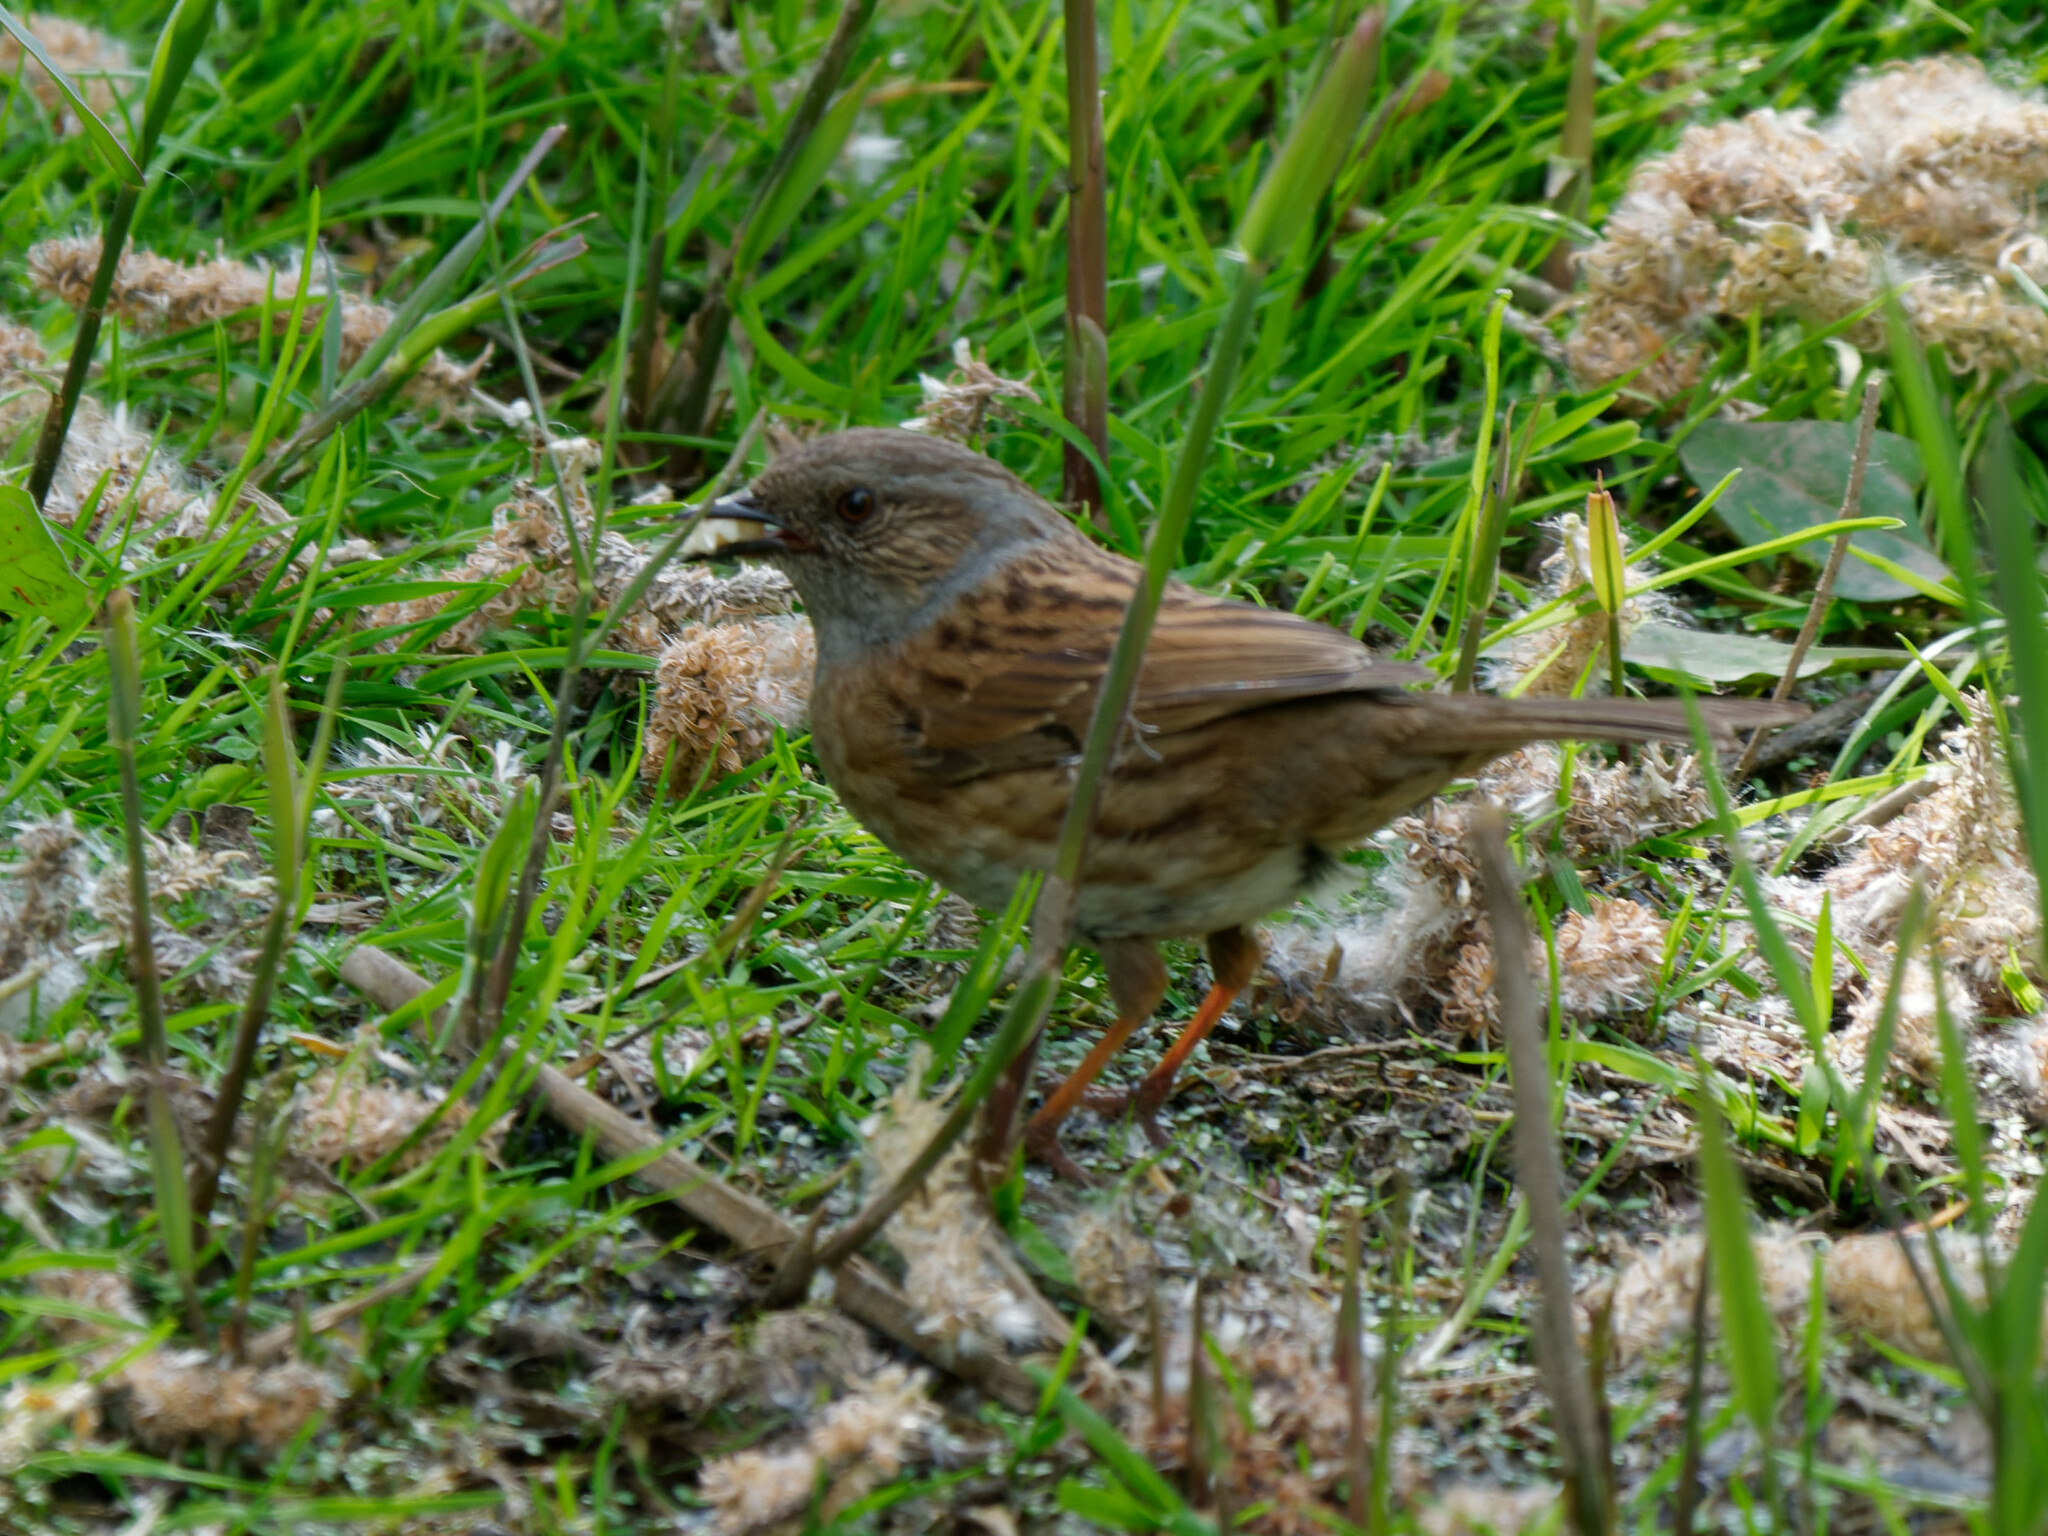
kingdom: Animalia
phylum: Chordata
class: Aves
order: Passeriformes
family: Prunellidae
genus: Prunella
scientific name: Prunella modularis
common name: Dunnock
